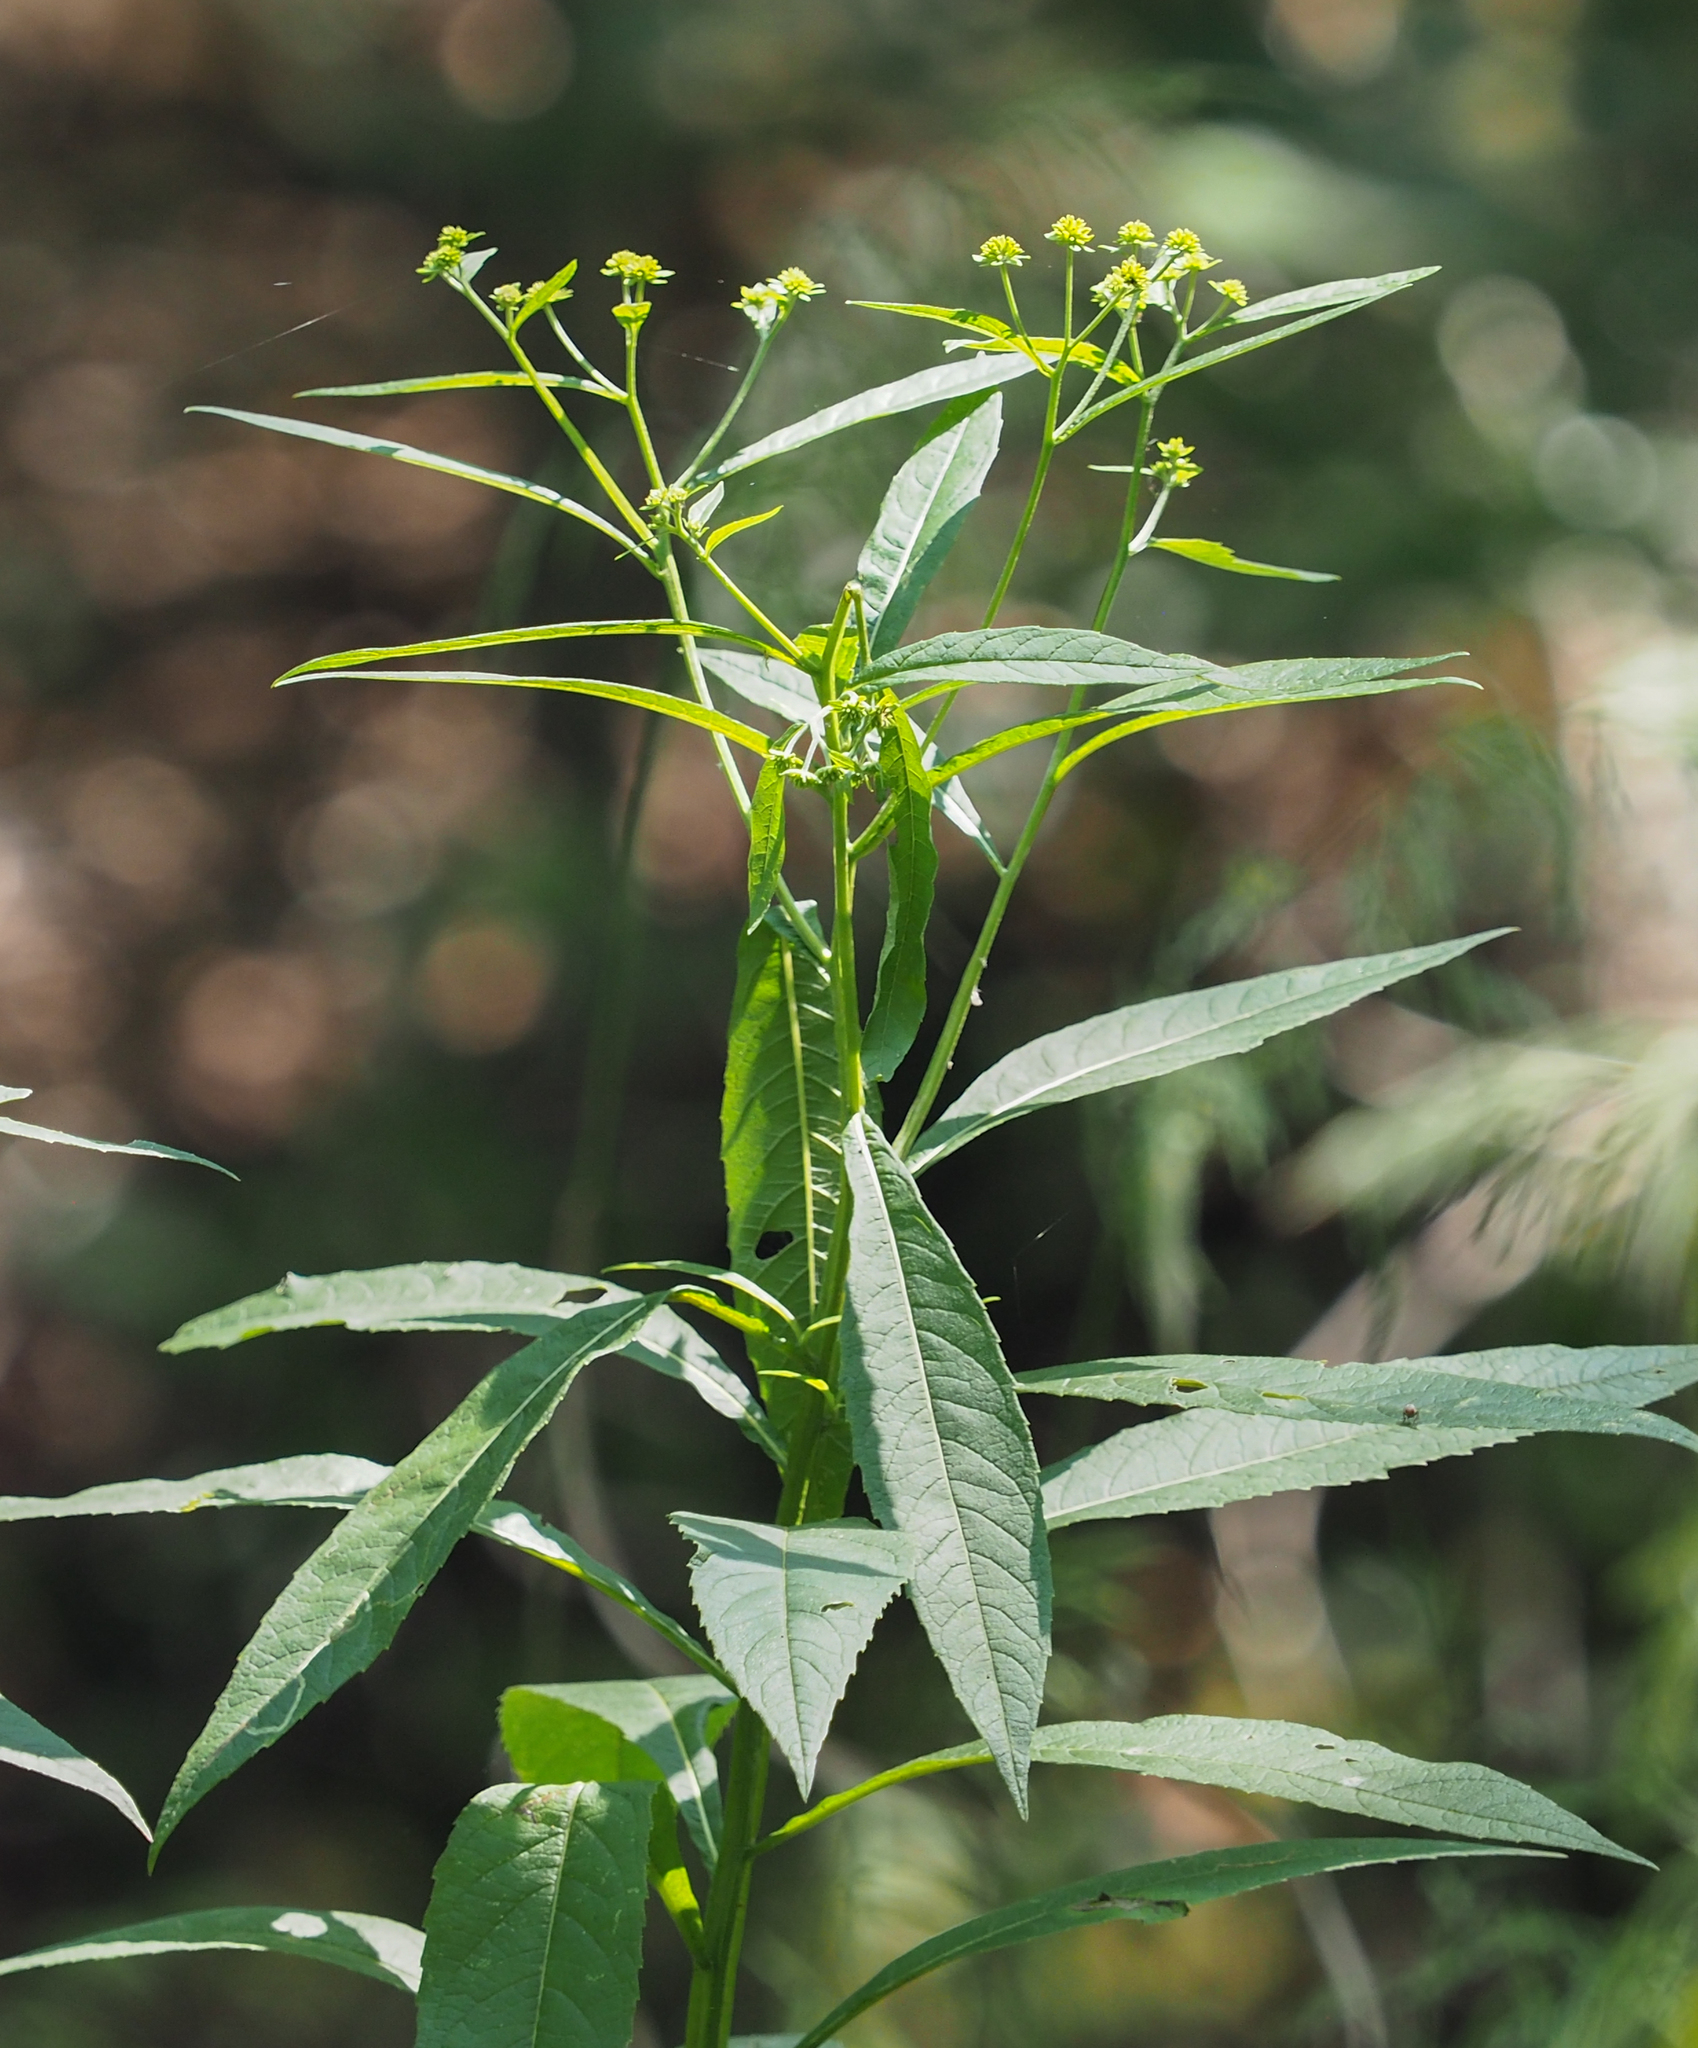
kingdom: Plantae
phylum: Tracheophyta
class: Magnoliopsida
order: Asterales
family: Asteraceae
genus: Verbesina
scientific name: Verbesina alternifolia
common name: Wingstem
